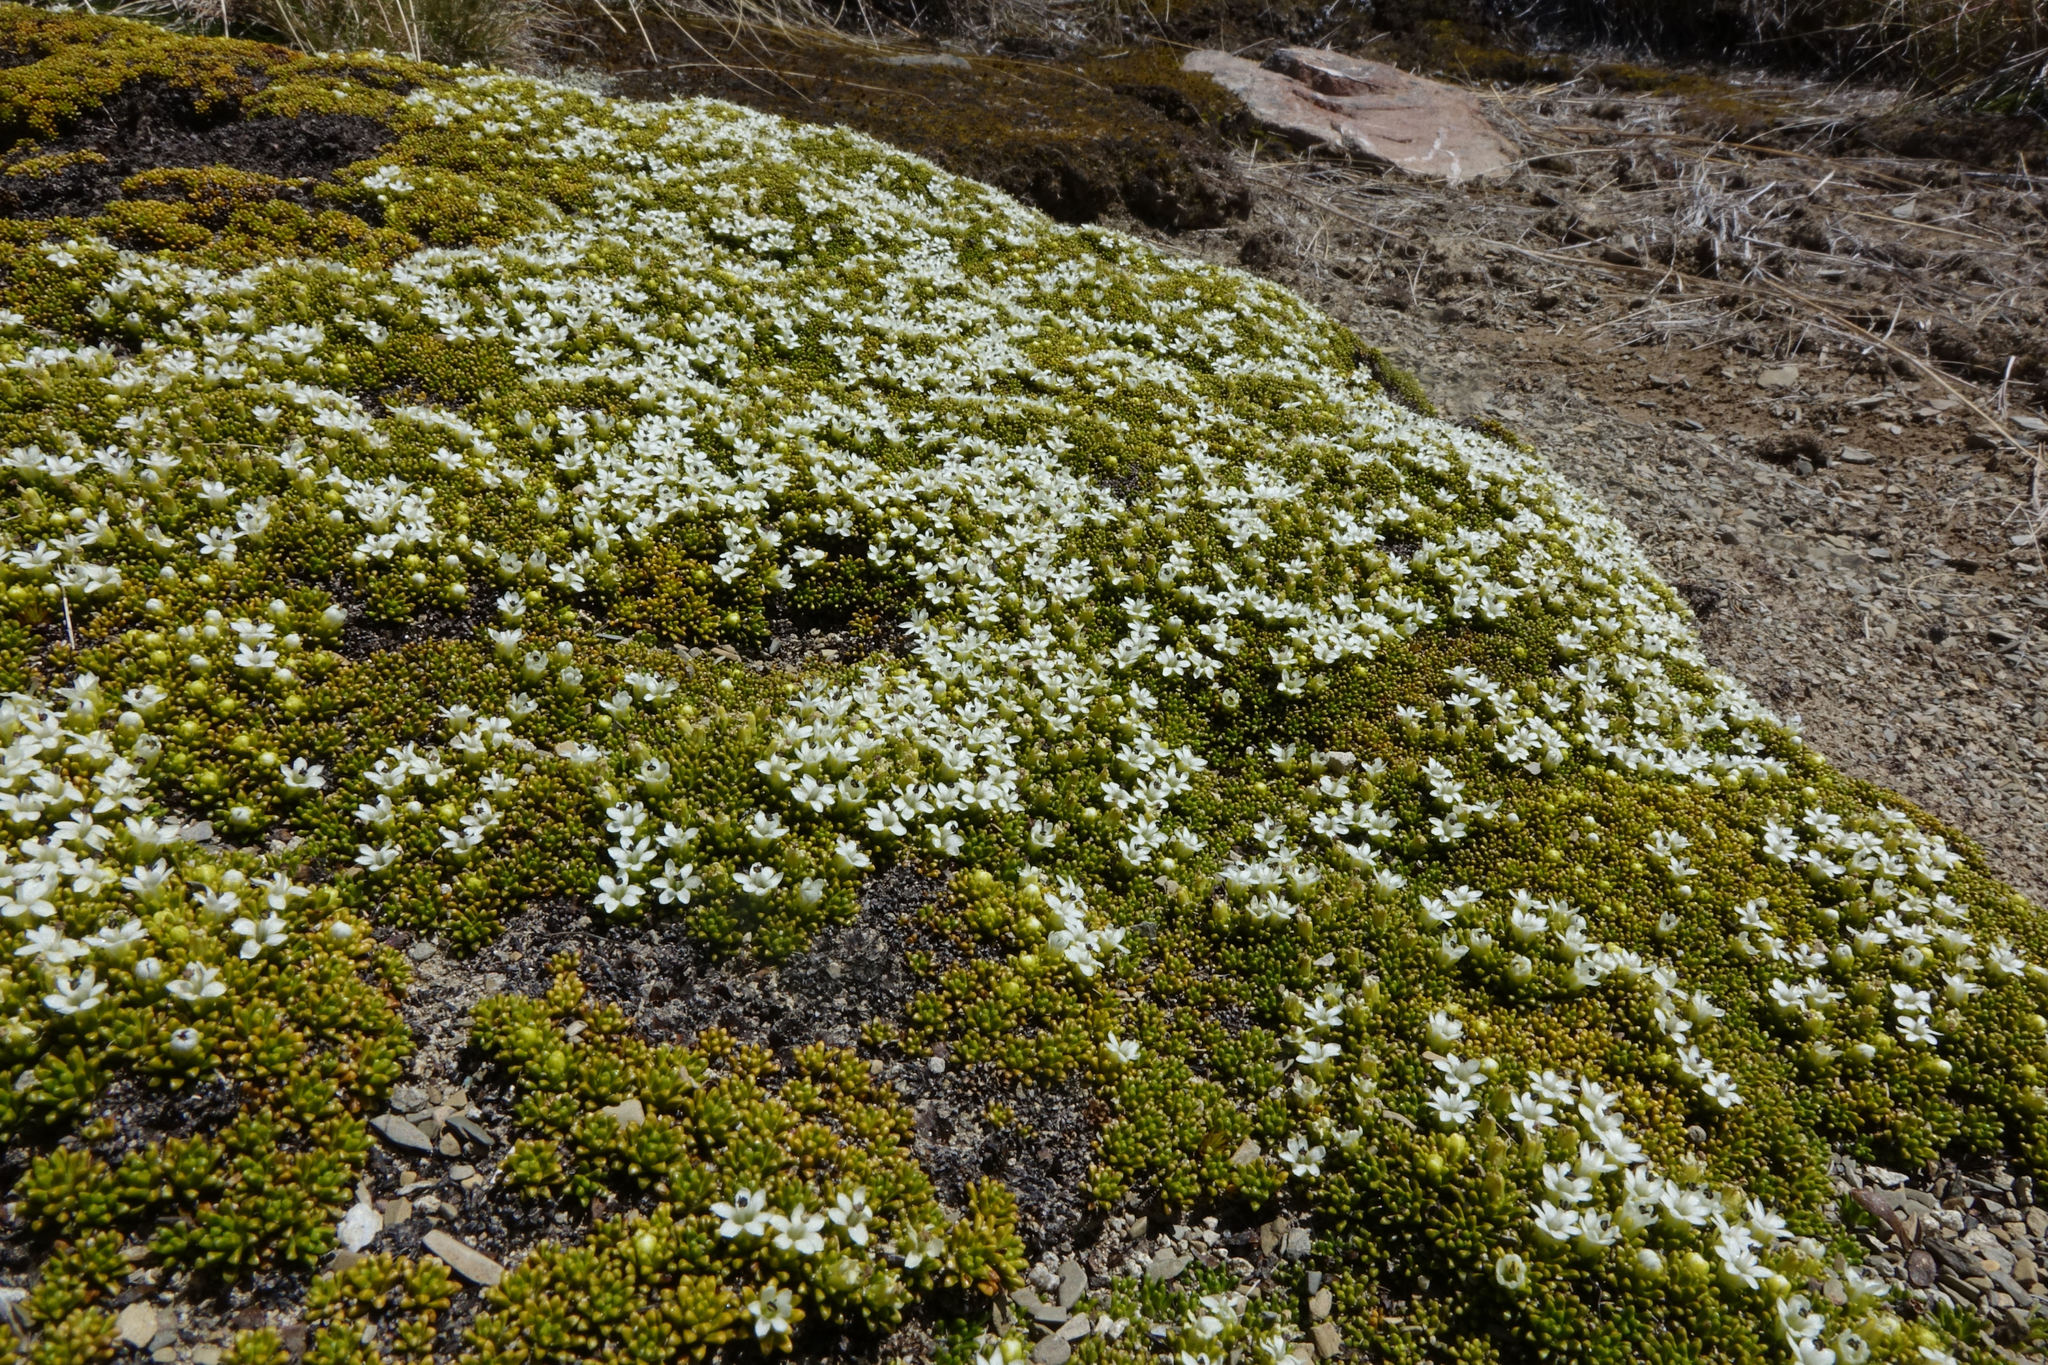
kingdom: Plantae
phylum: Tracheophyta
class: Magnoliopsida
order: Asterales
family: Stylidiaceae
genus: Phyllachne
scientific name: Phyllachne colensoi
